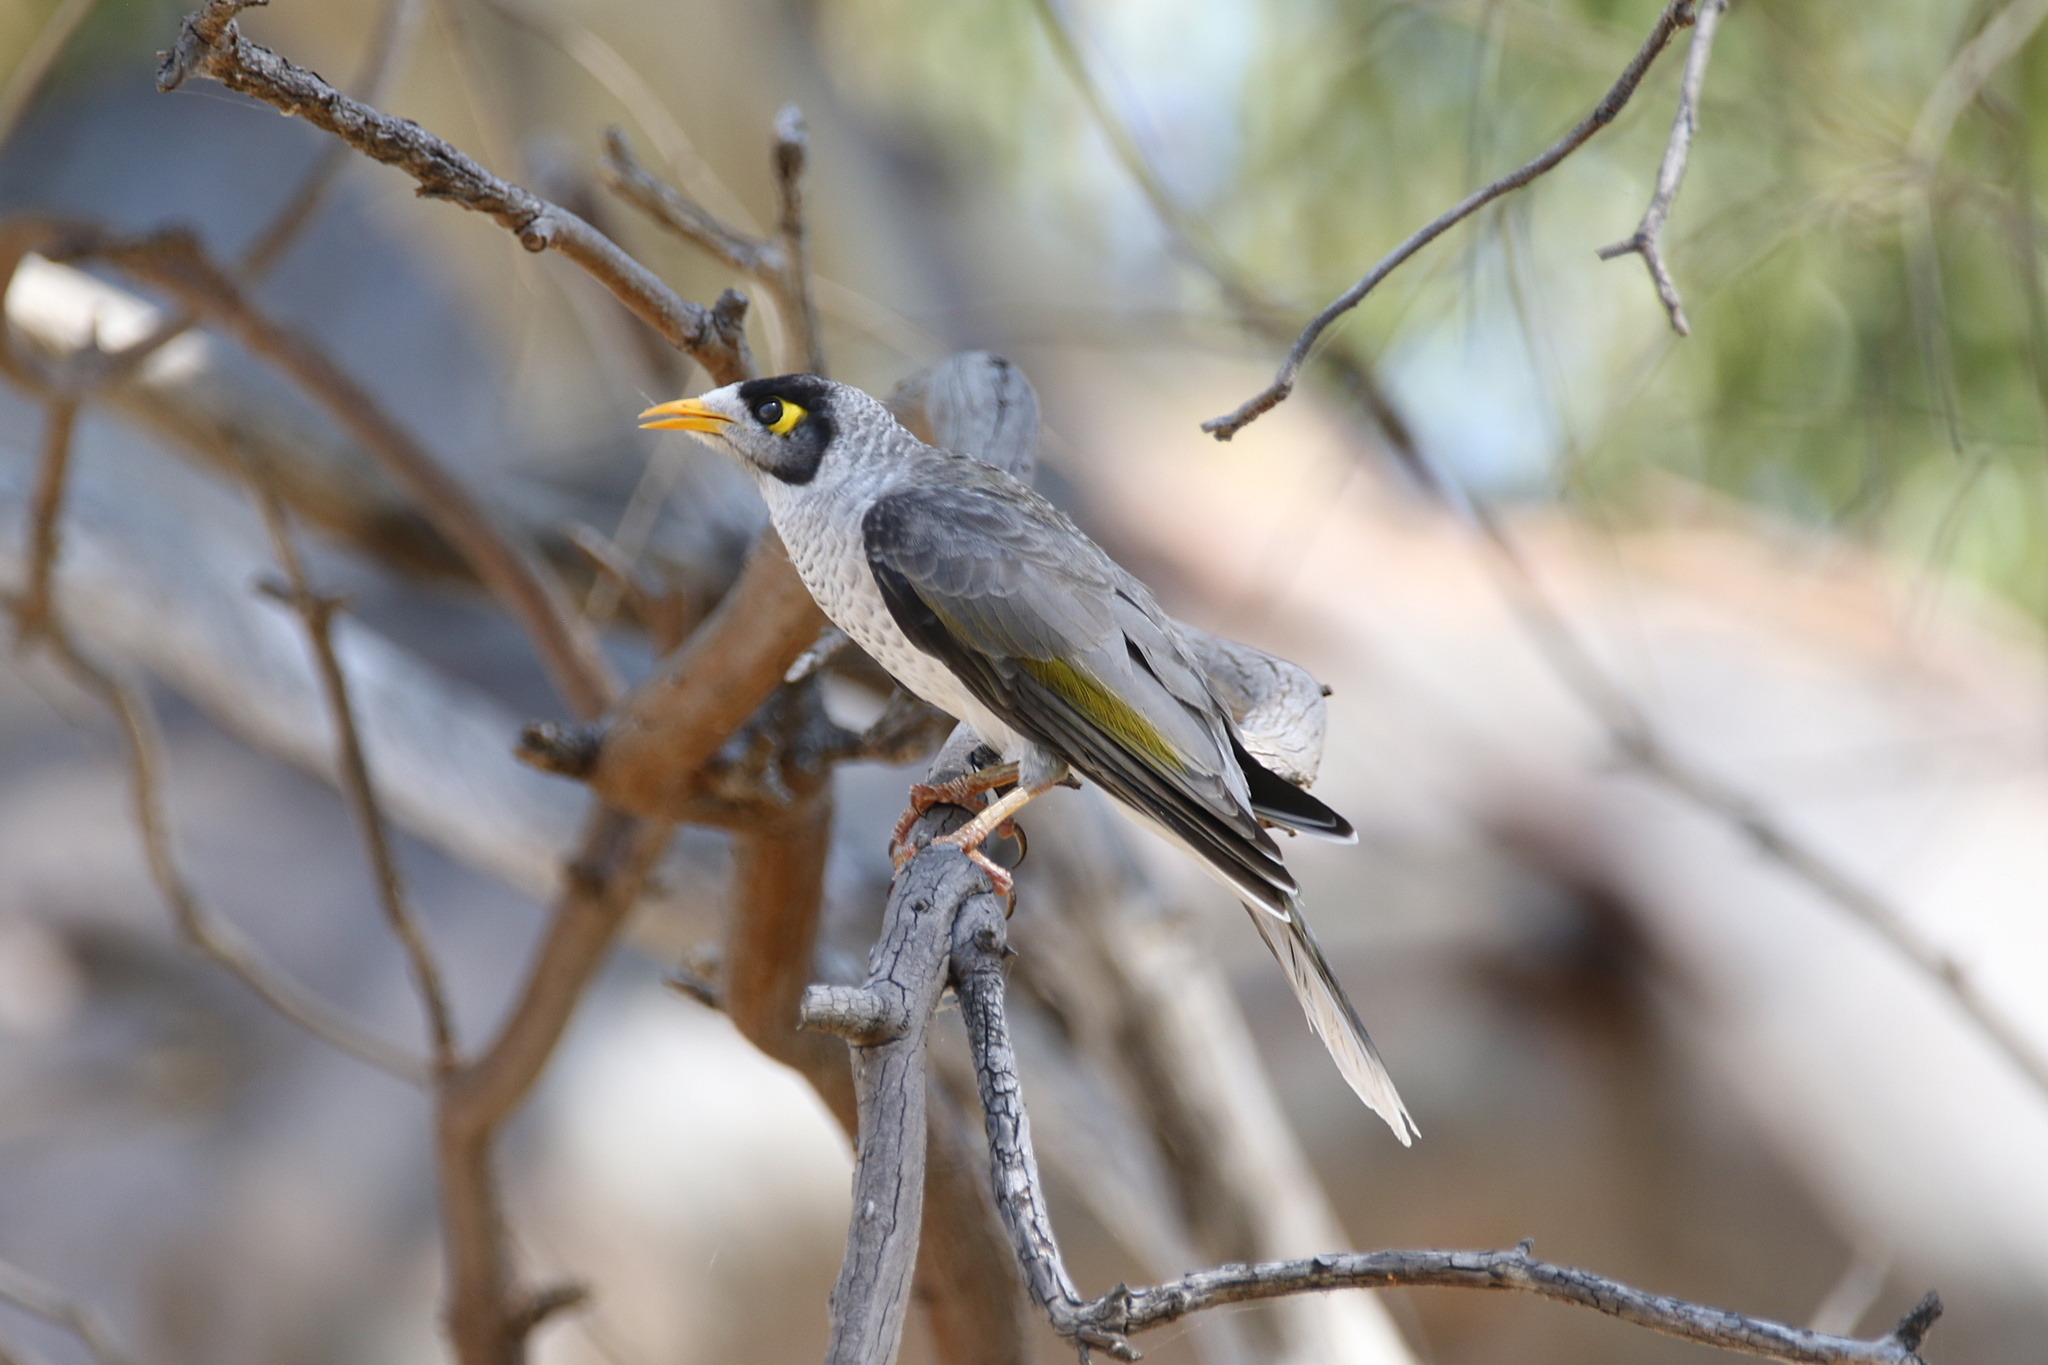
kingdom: Animalia
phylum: Chordata
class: Aves
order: Passeriformes
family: Meliphagidae
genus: Manorina
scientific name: Manorina melanocephala
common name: Noisy miner
